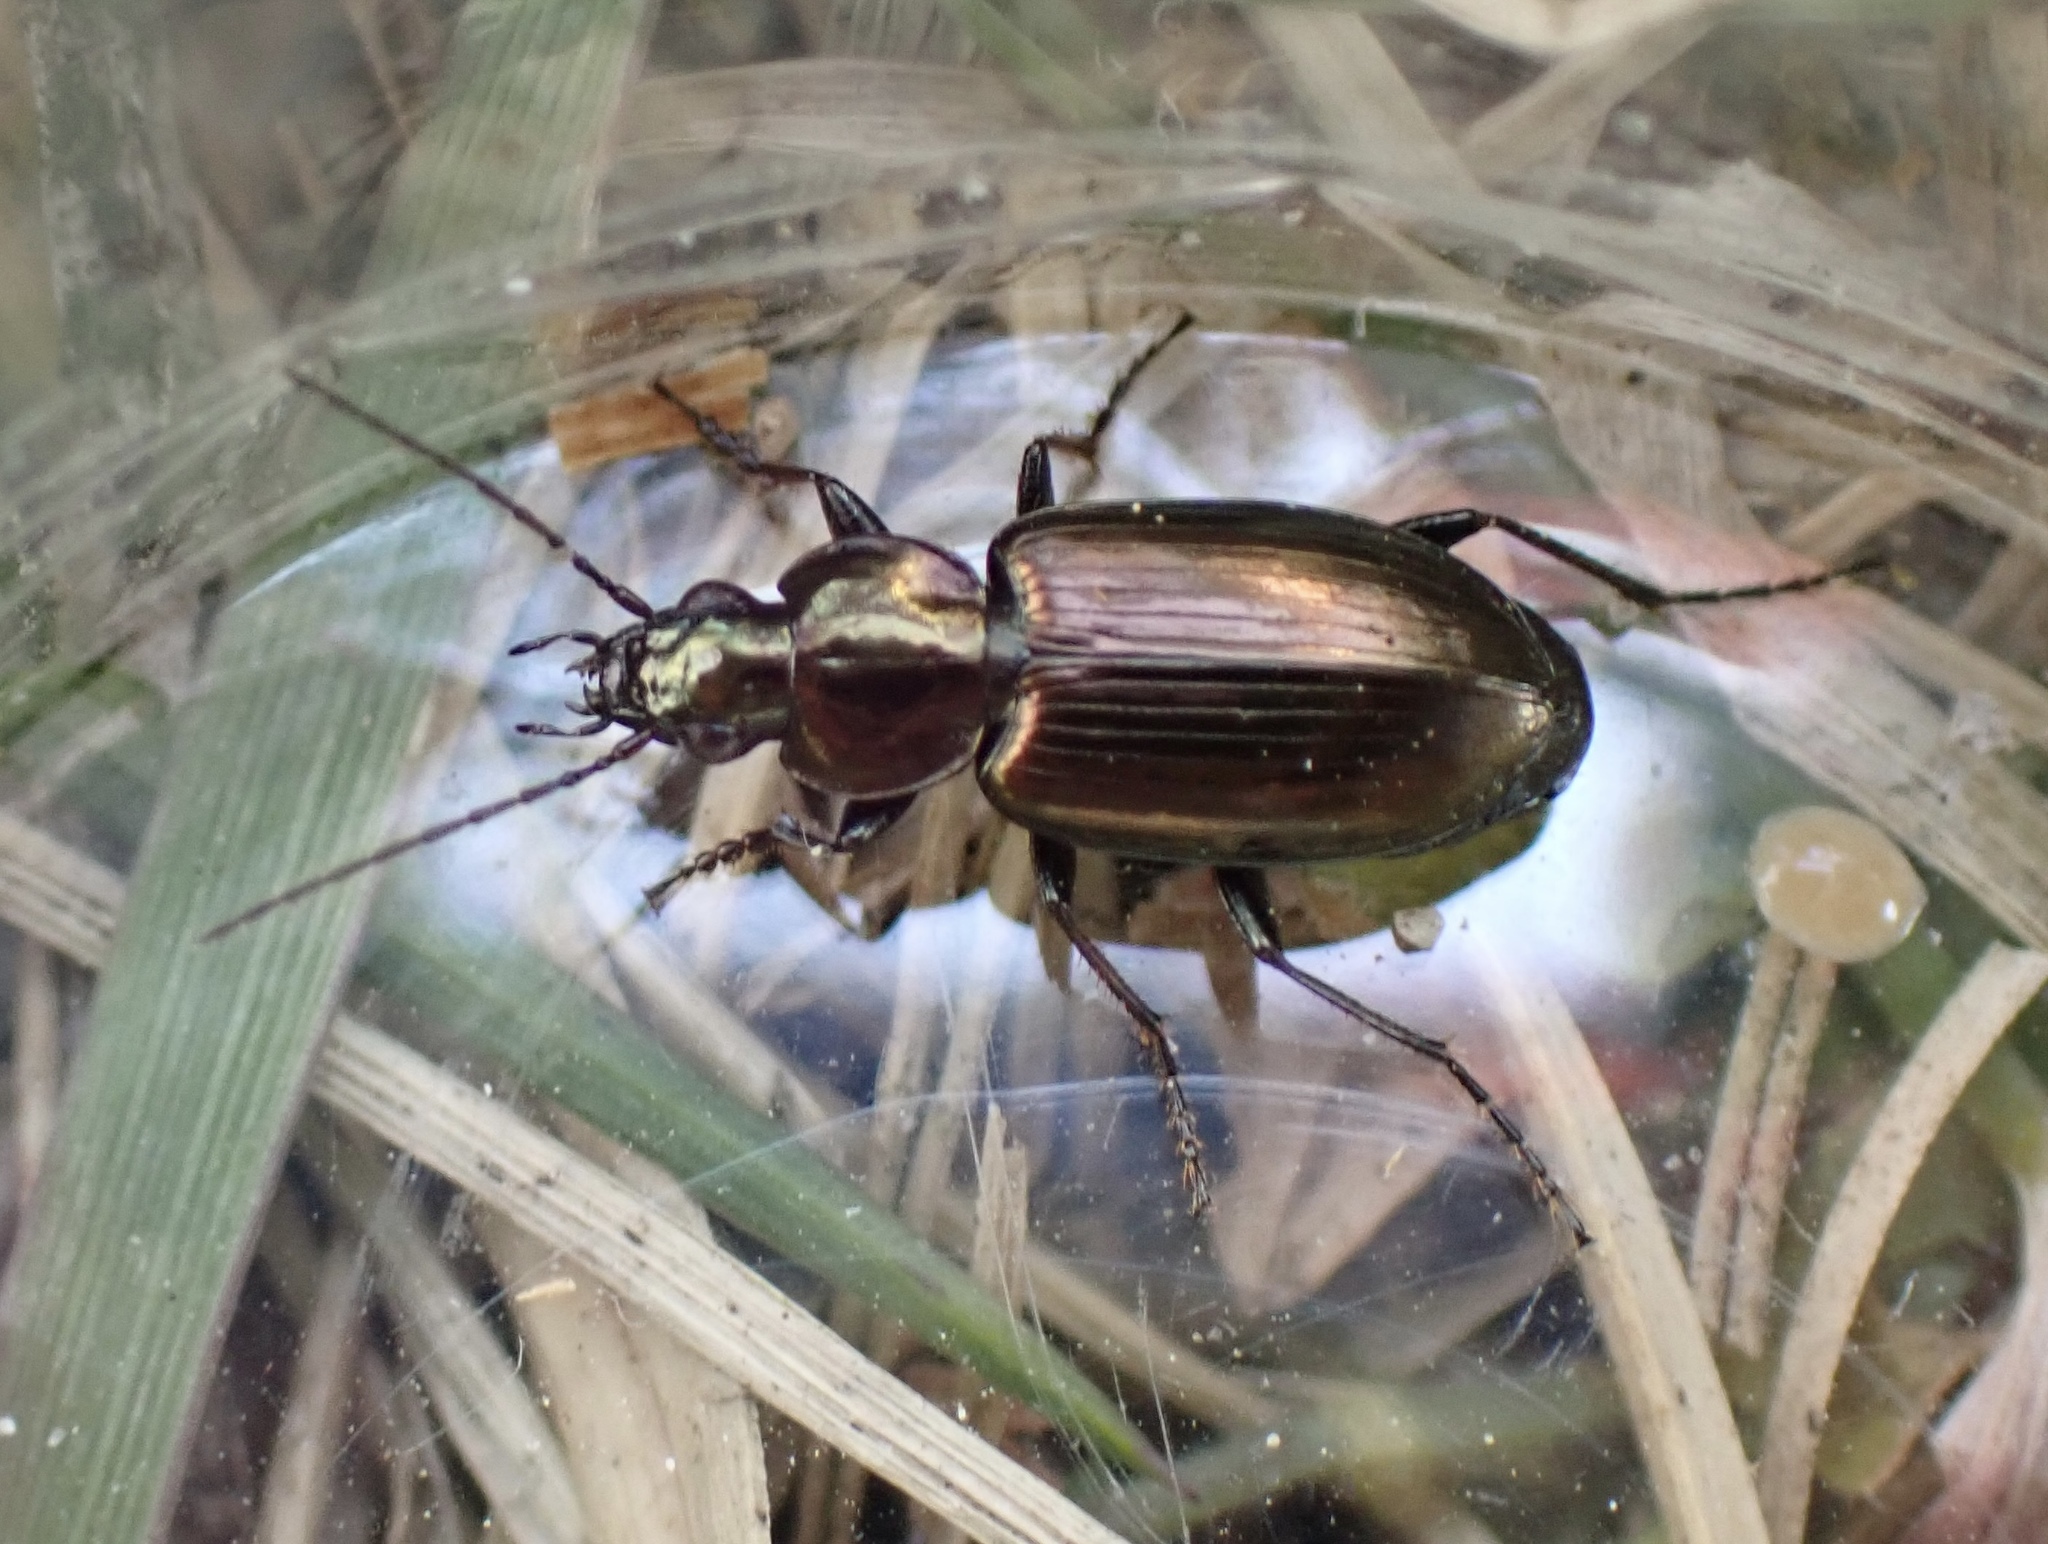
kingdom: Animalia
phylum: Arthropoda
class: Insecta
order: Coleoptera
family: Carabidae
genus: Agonum
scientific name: Agonum muelleri
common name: Müller's harp ground beetle
